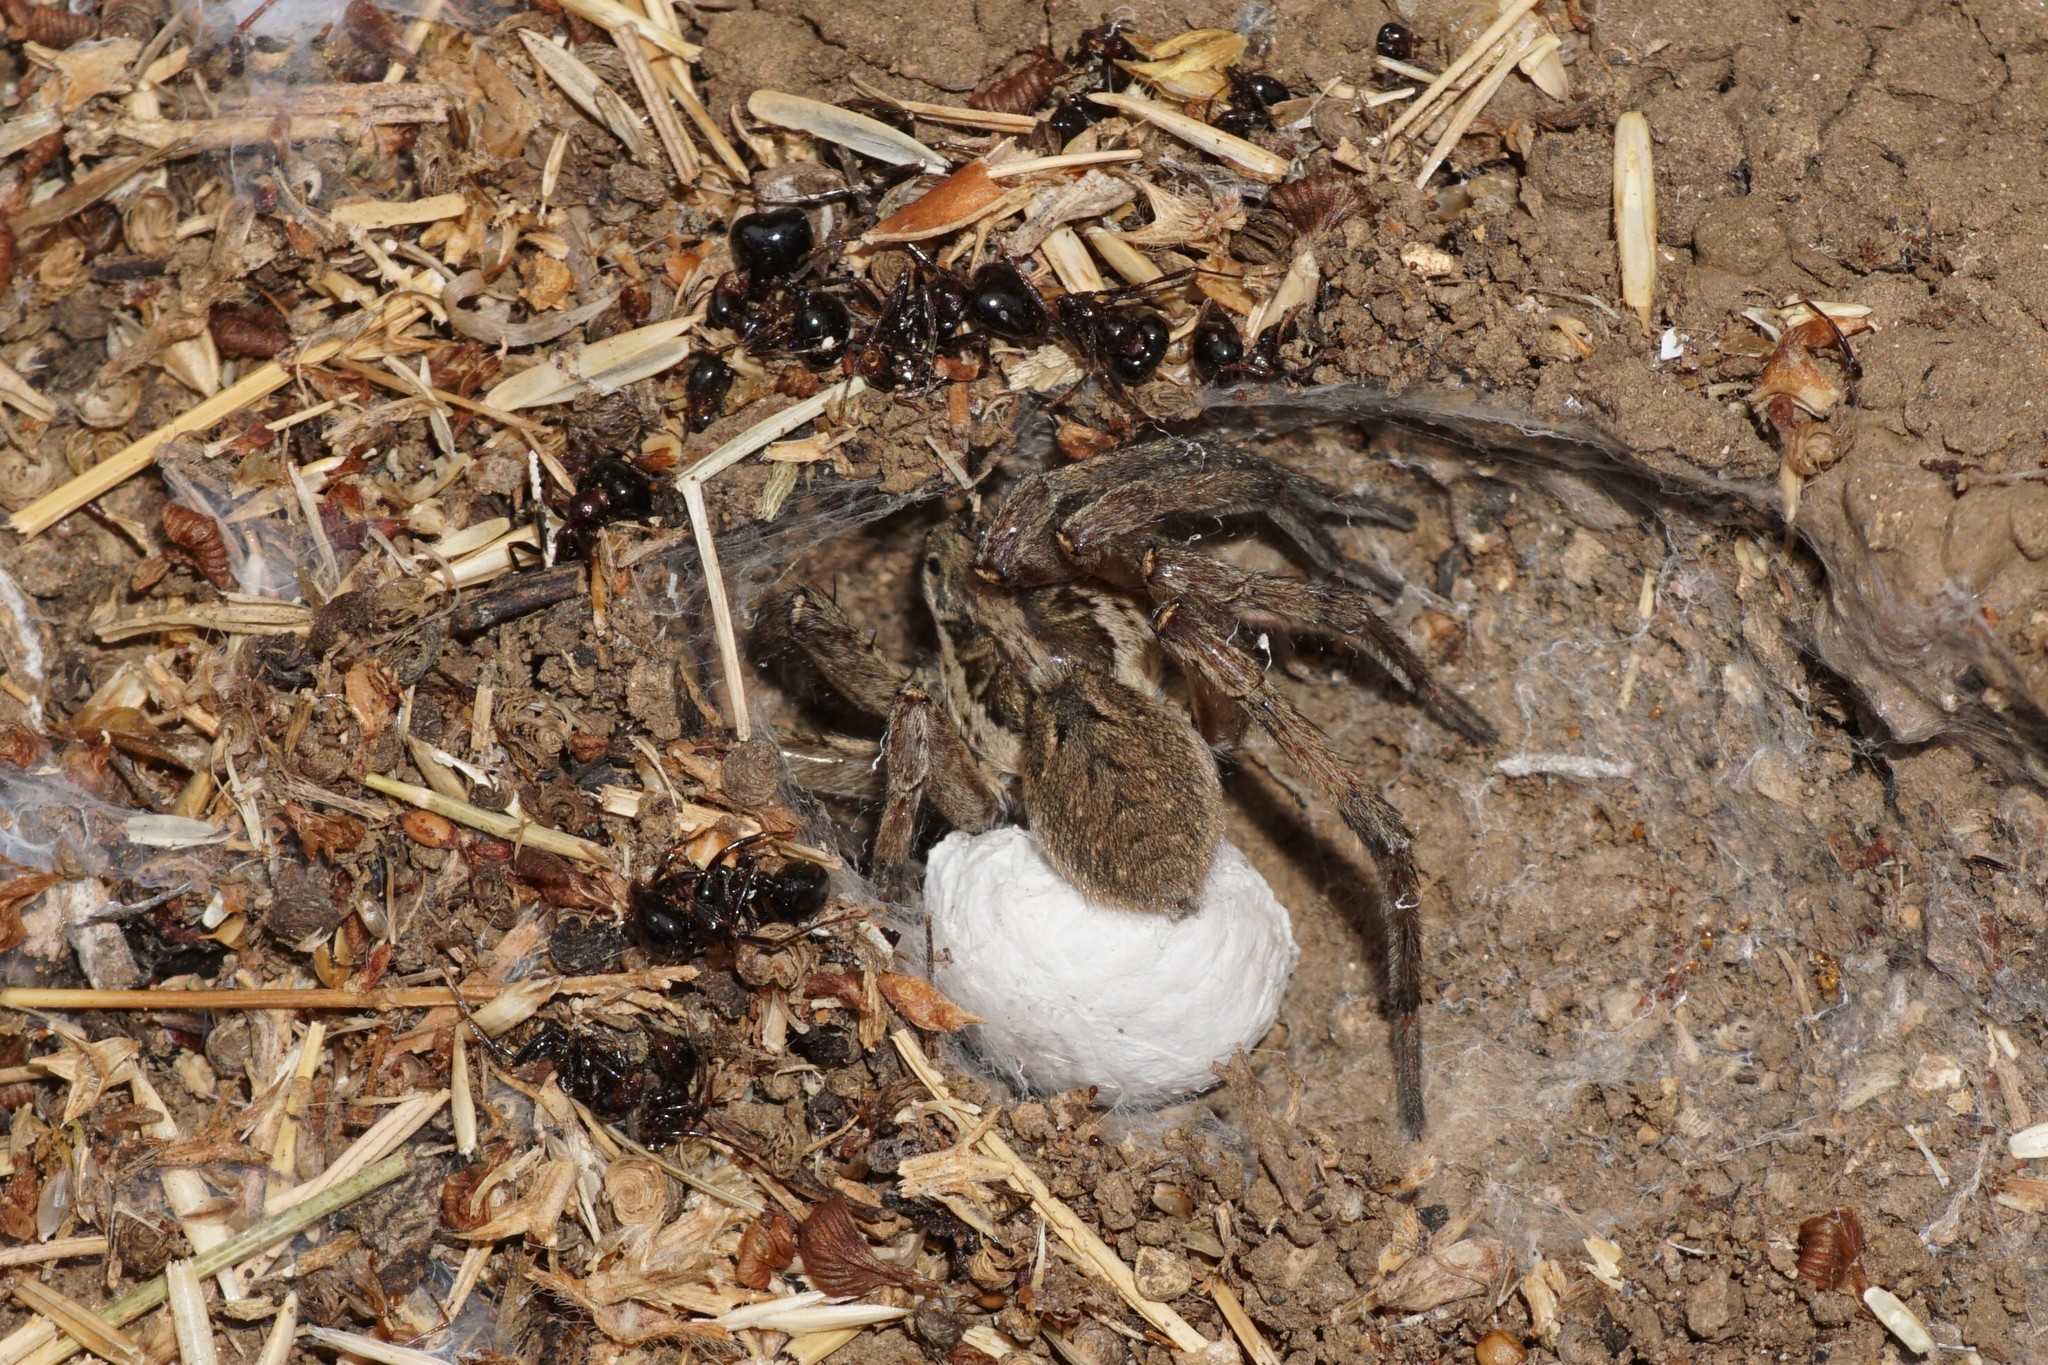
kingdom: Animalia
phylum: Arthropoda
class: Arachnida
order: Araneae
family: Lycosidae
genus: Hogna
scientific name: Hogna radiata
